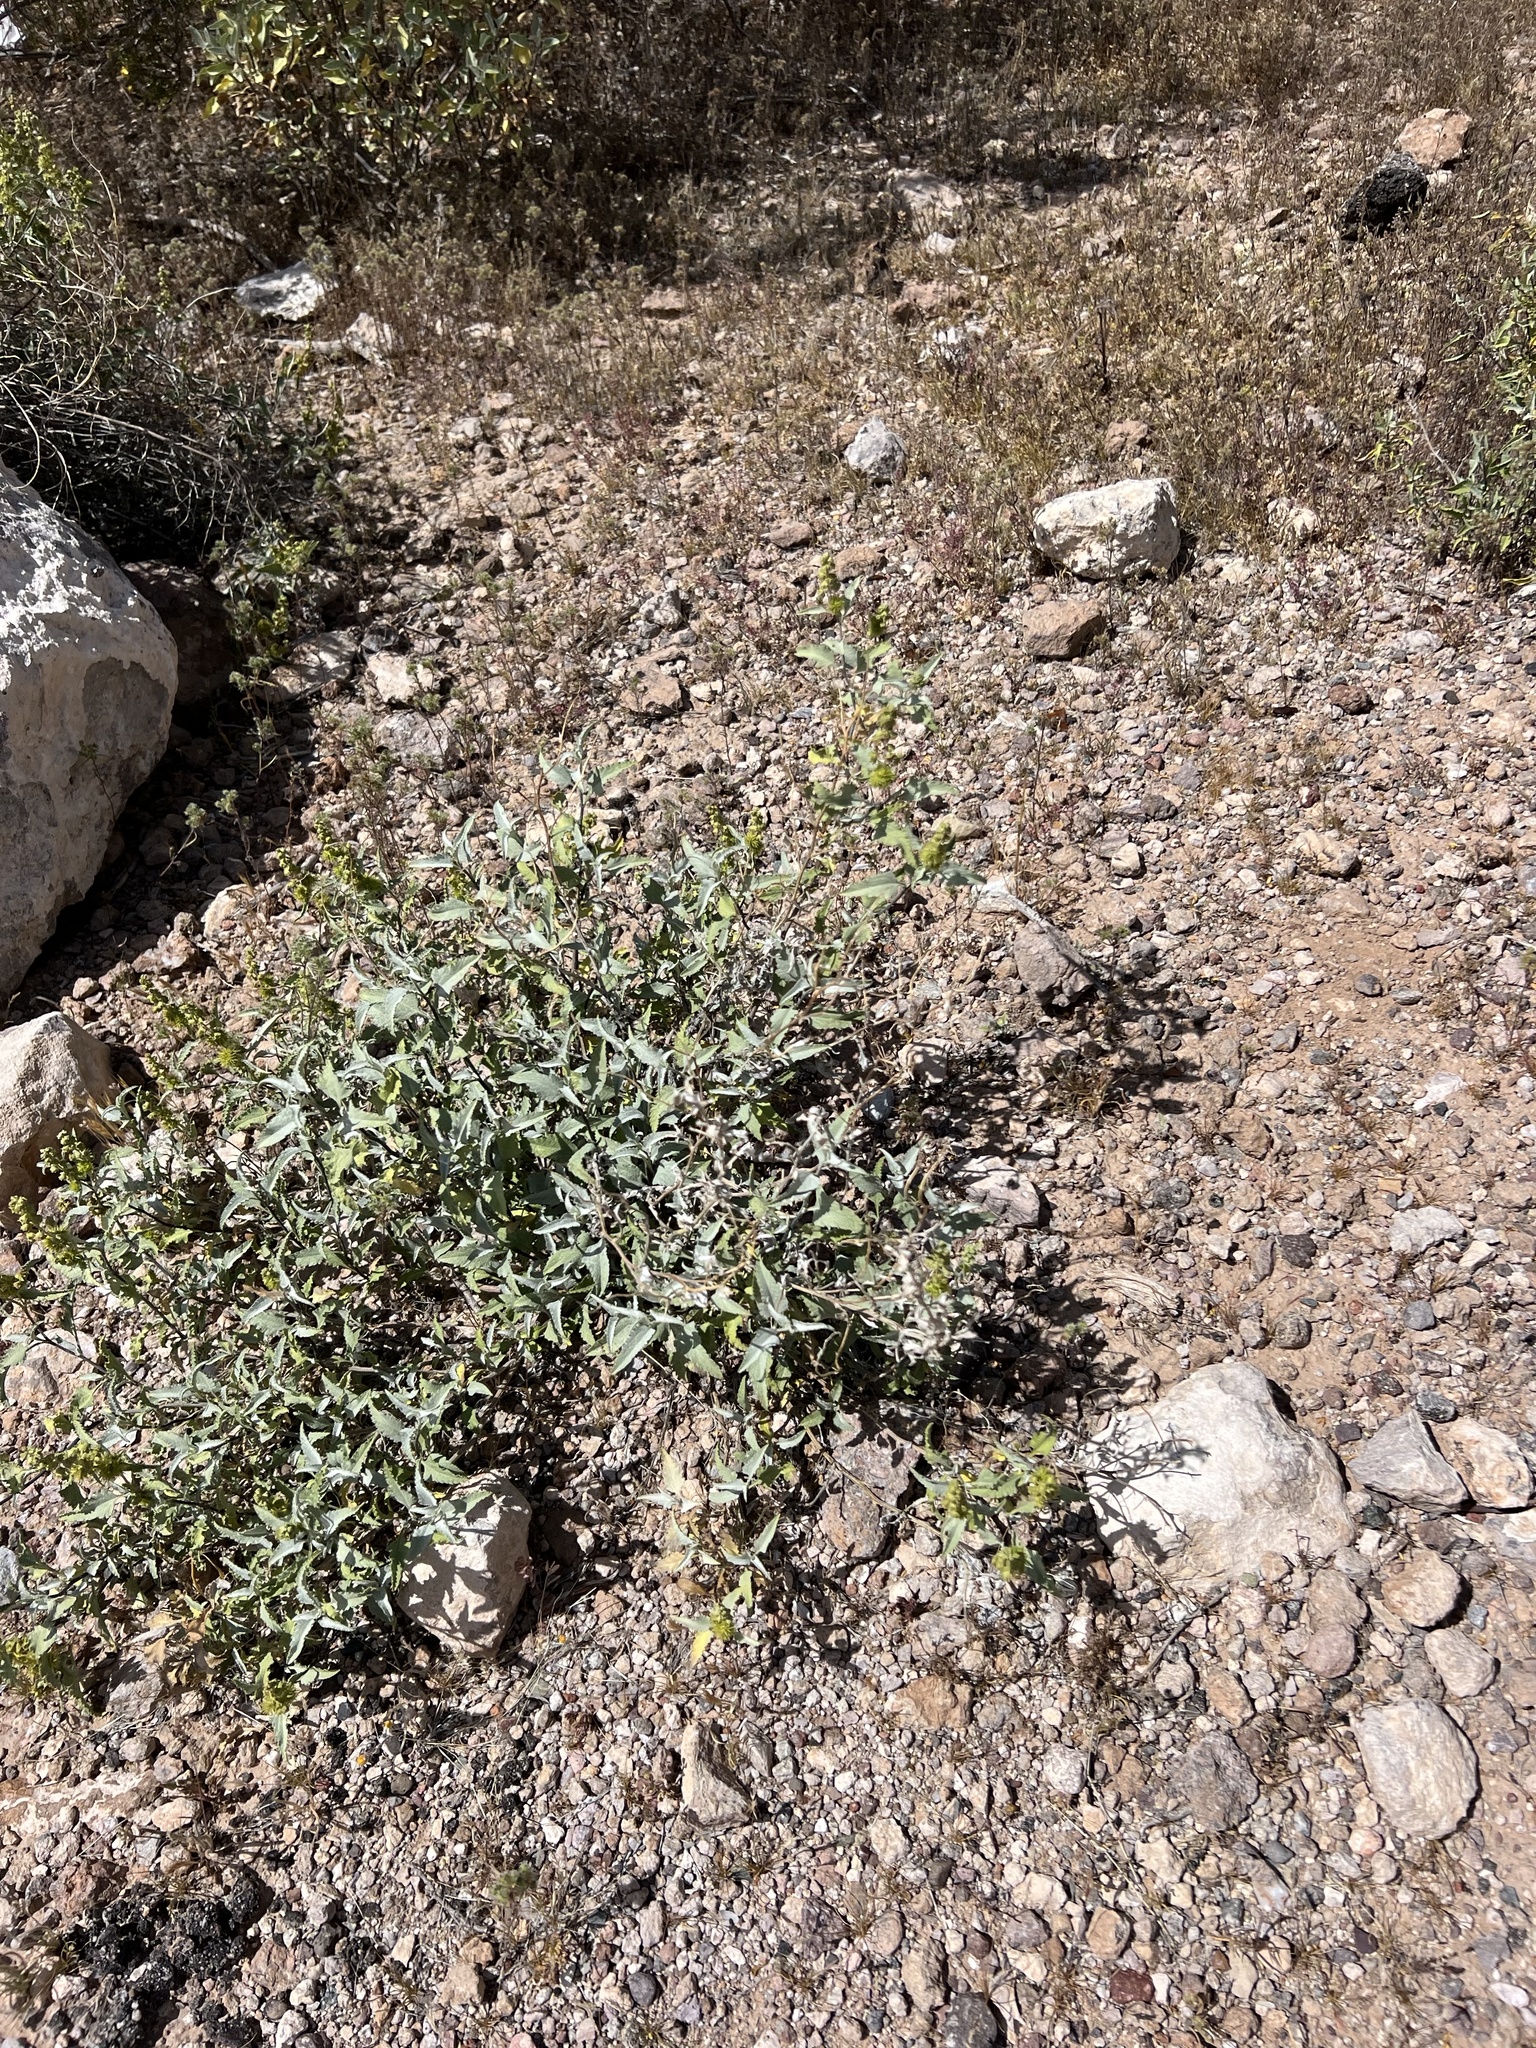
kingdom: Plantae
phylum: Tracheophyta
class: Magnoliopsida
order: Asterales
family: Asteraceae
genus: Ambrosia
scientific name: Ambrosia deltoidea
